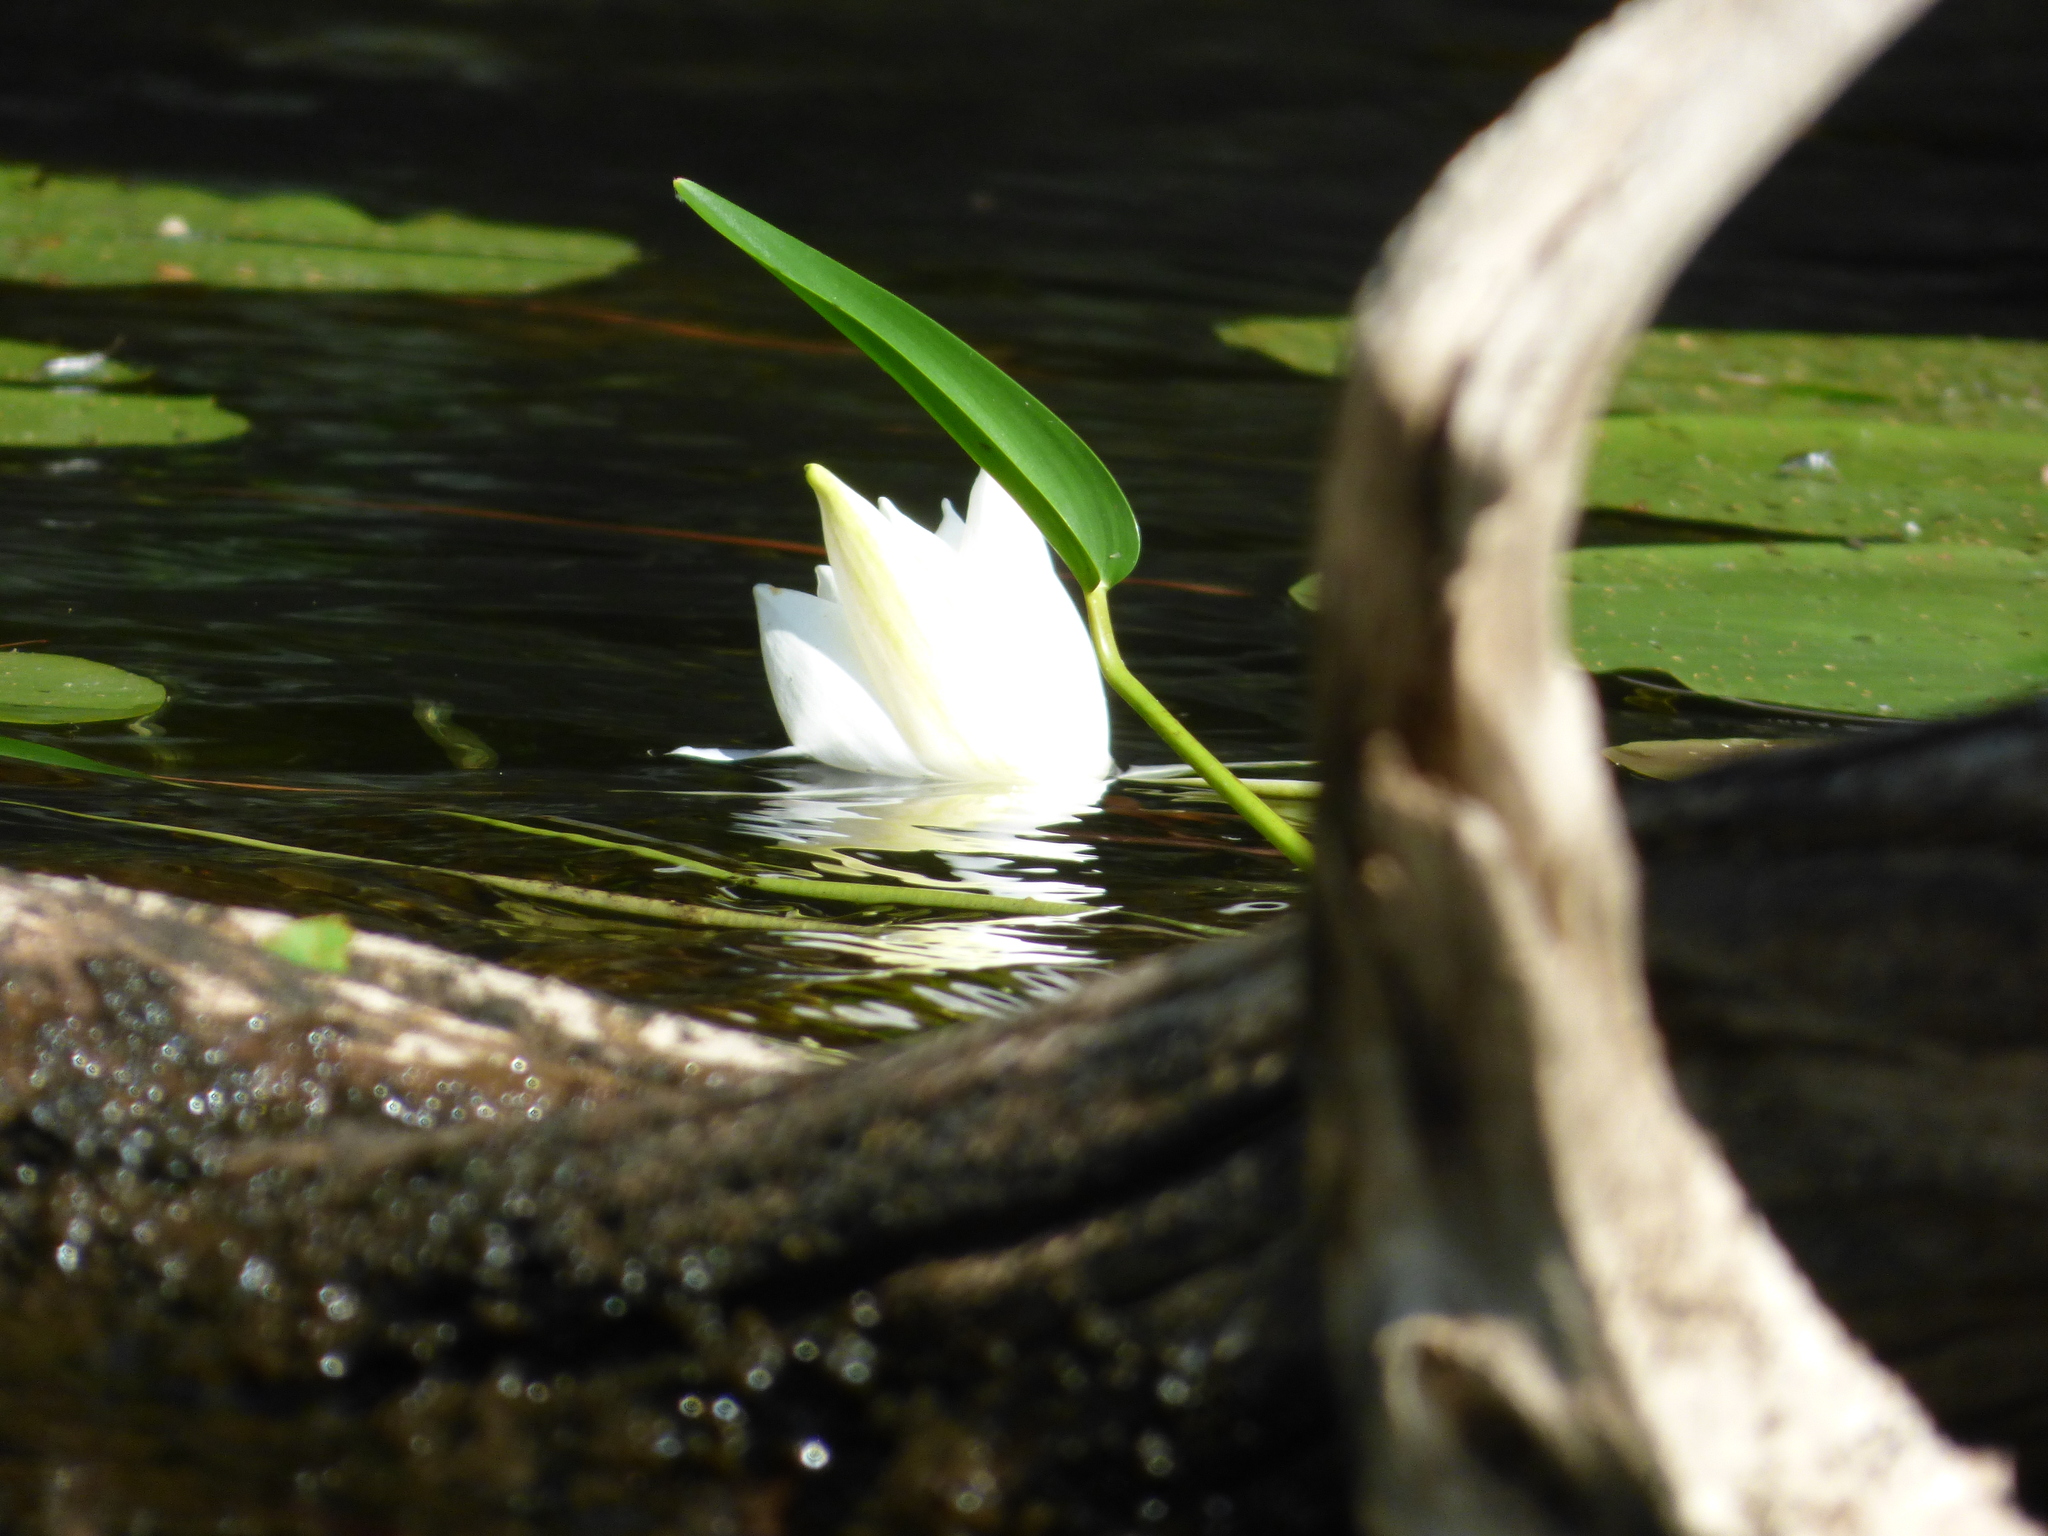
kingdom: Plantae
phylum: Tracheophyta
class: Magnoliopsida
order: Nymphaeales
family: Nymphaeaceae
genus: Nymphaea
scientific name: Nymphaea odorata
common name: Fragrant water-lily
